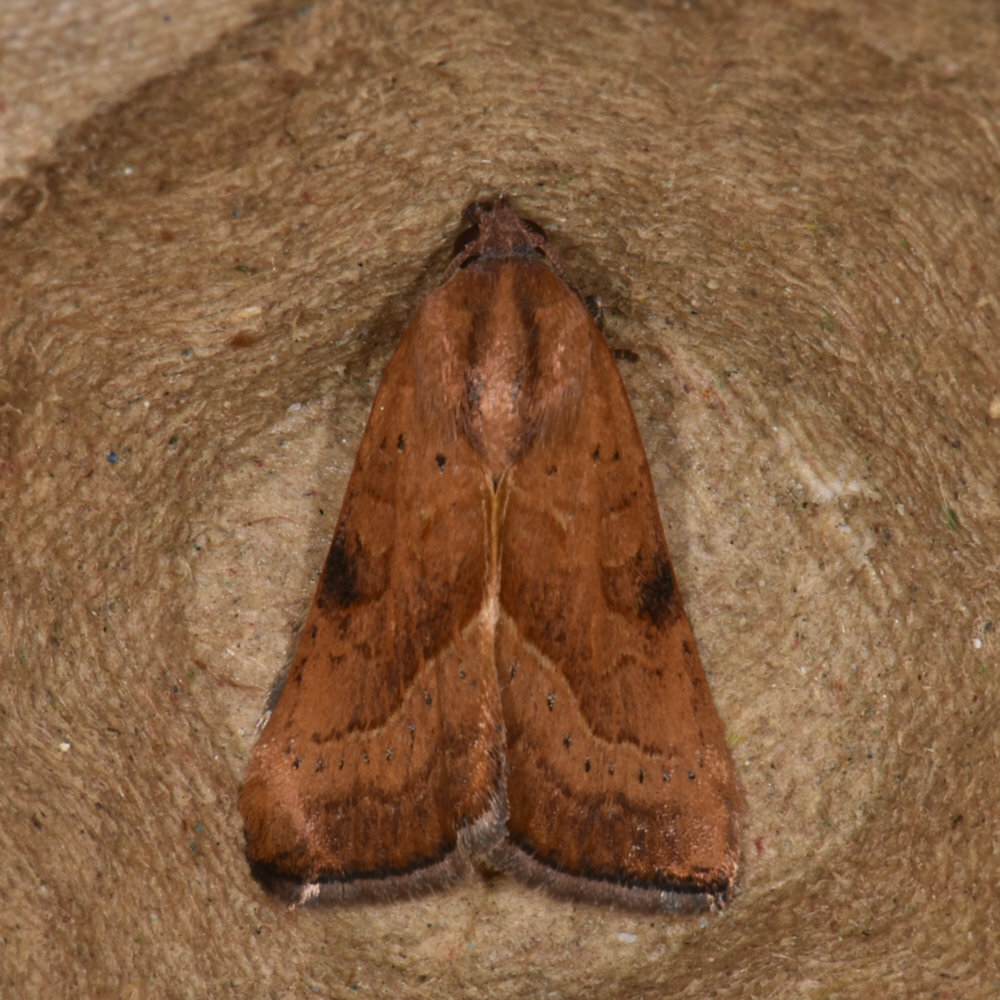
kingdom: Animalia
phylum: Arthropoda
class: Insecta
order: Lepidoptera
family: Noctuidae
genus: Galgula
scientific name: Galgula partita
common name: Wedgeling
